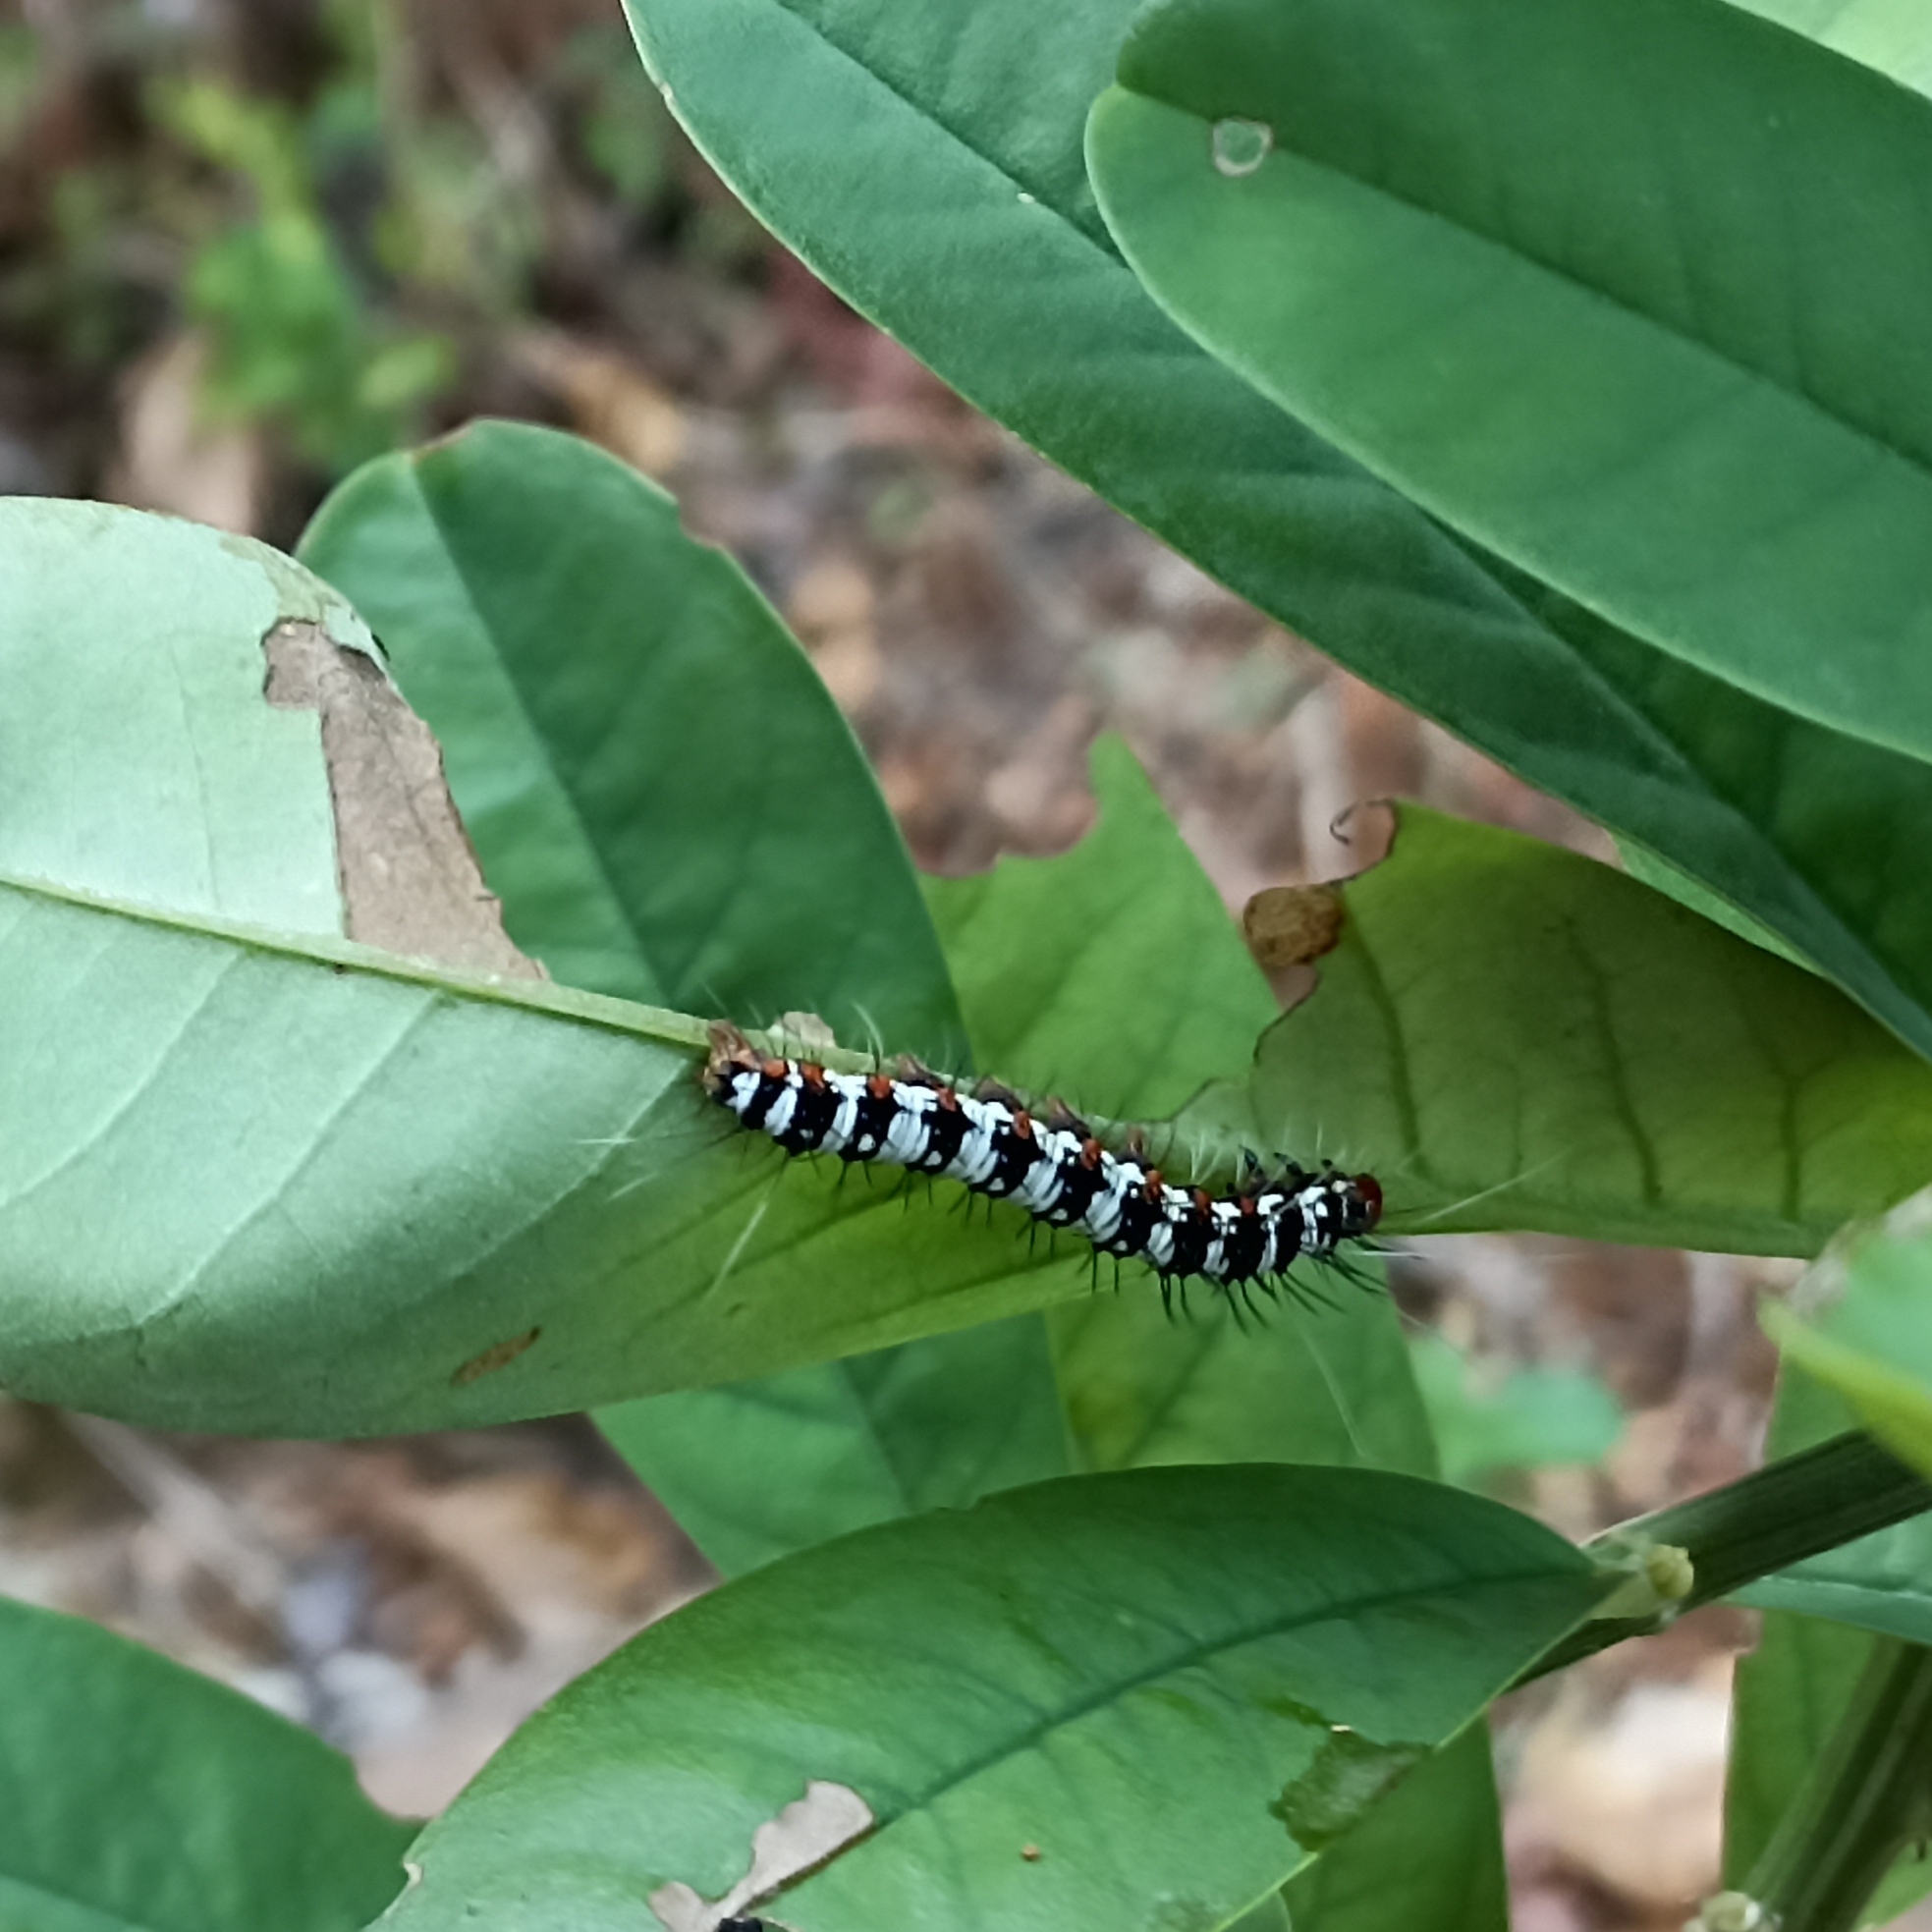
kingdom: Animalia
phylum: Arthropoda
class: Insecta
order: Lepidoptera
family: Erebidae
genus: Argina
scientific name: Argina astrea
